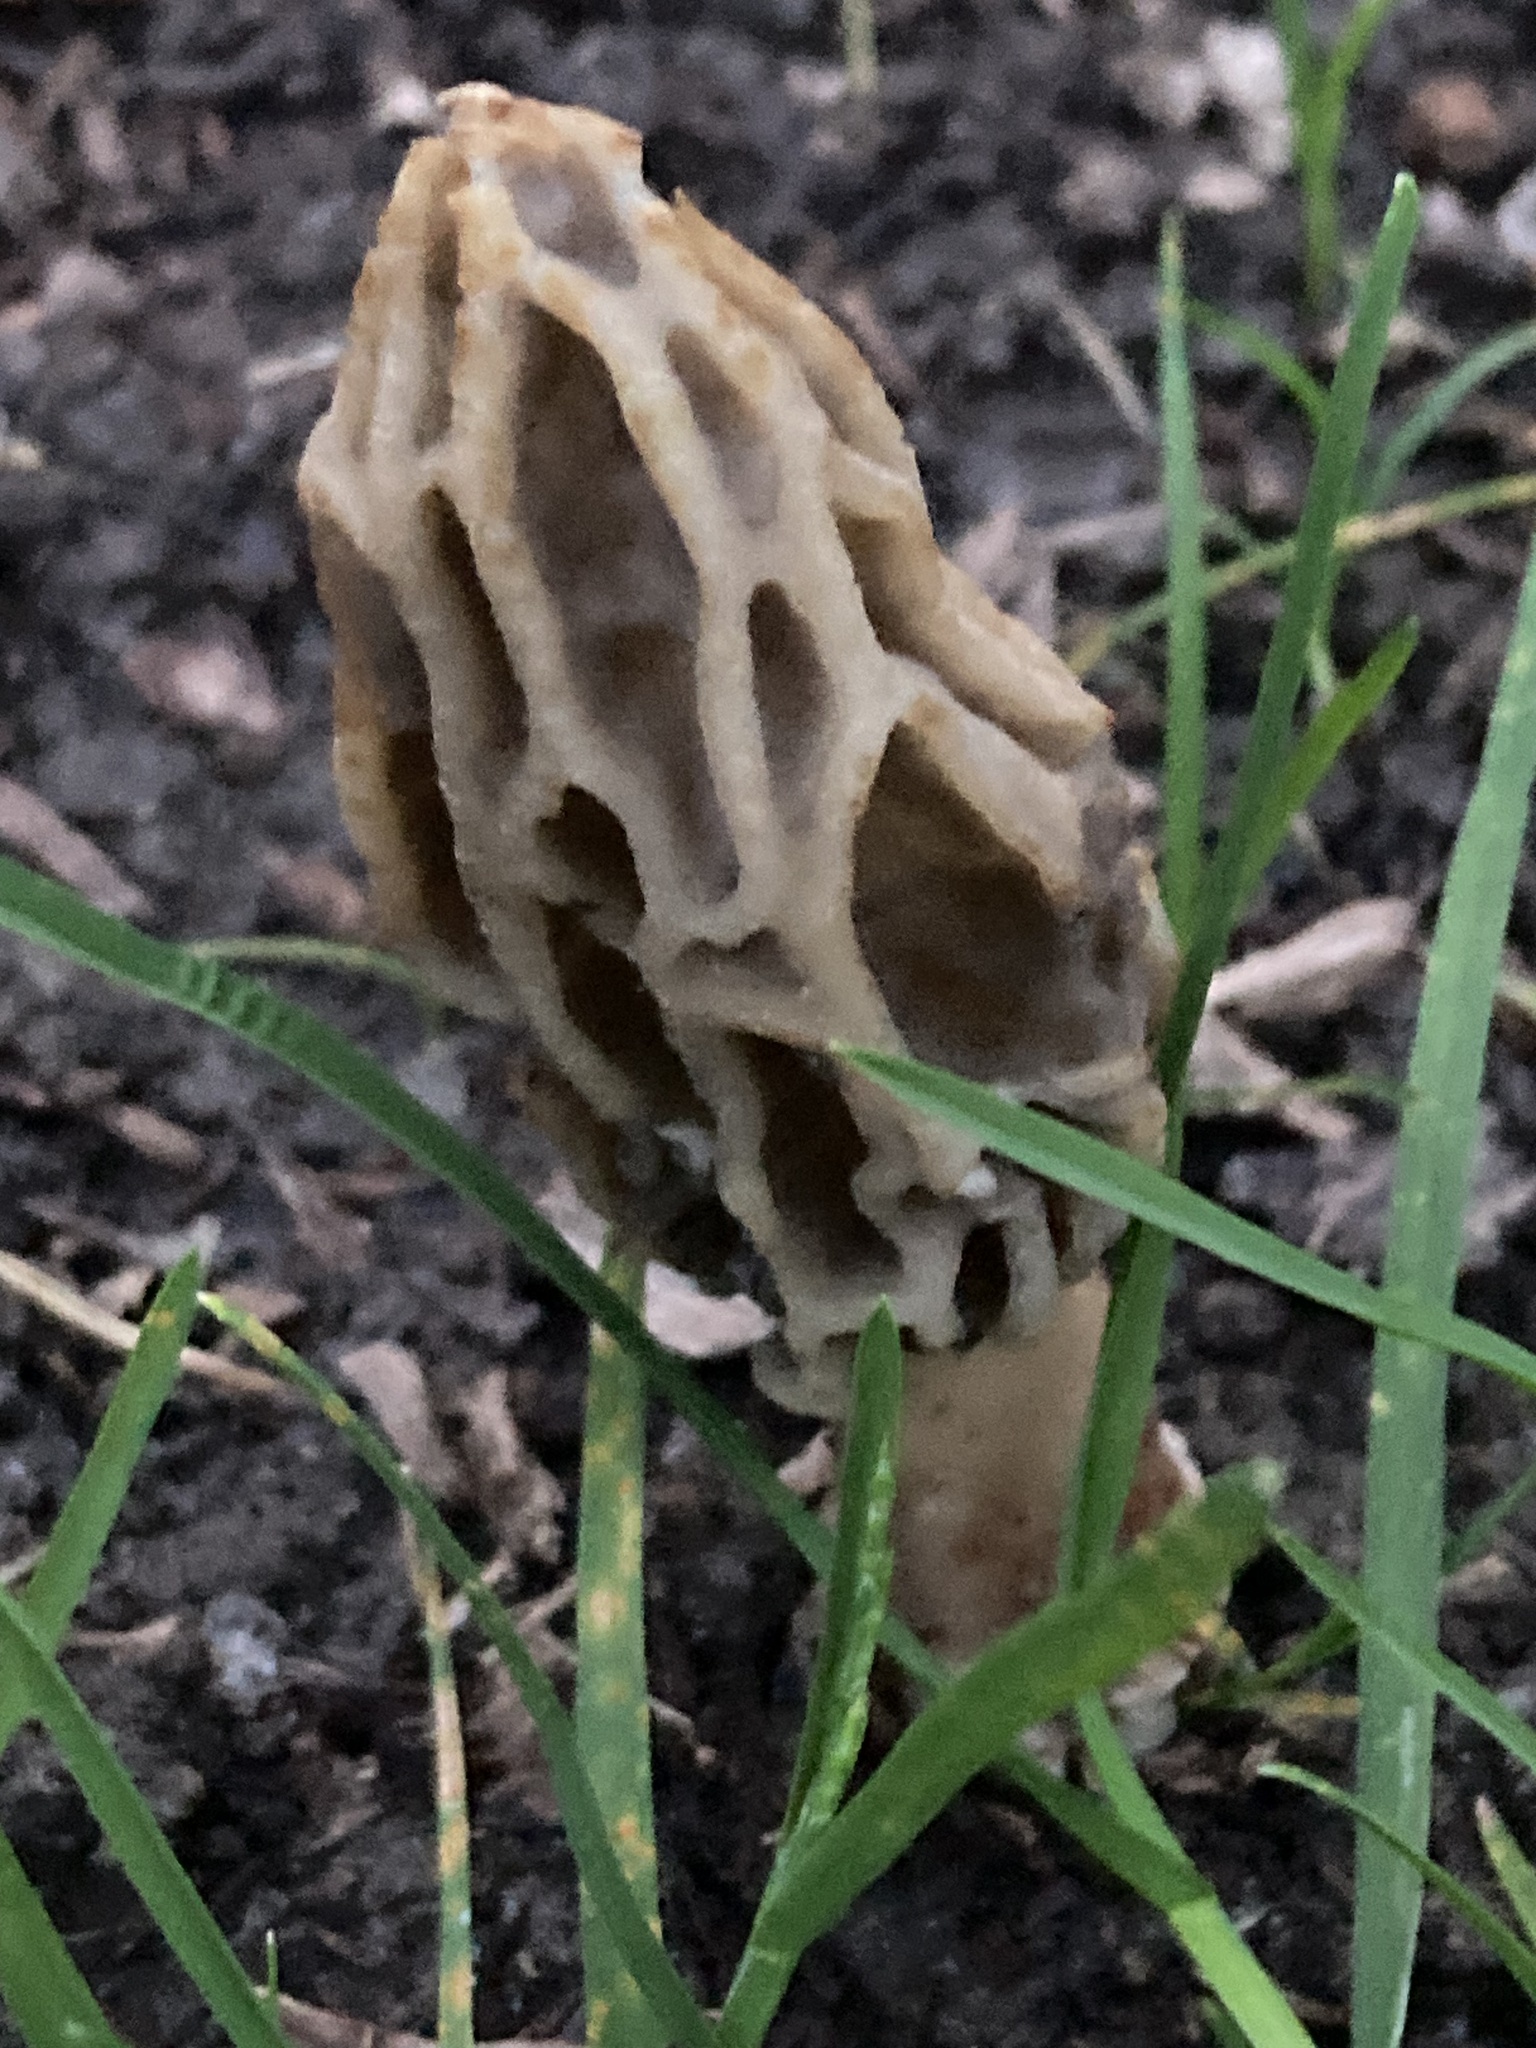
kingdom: Fungi
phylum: Ascomycota
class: Pezizomycetes
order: Pezizales
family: Morchellaceae
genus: Morchella
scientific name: Morchella rufobrunnea
